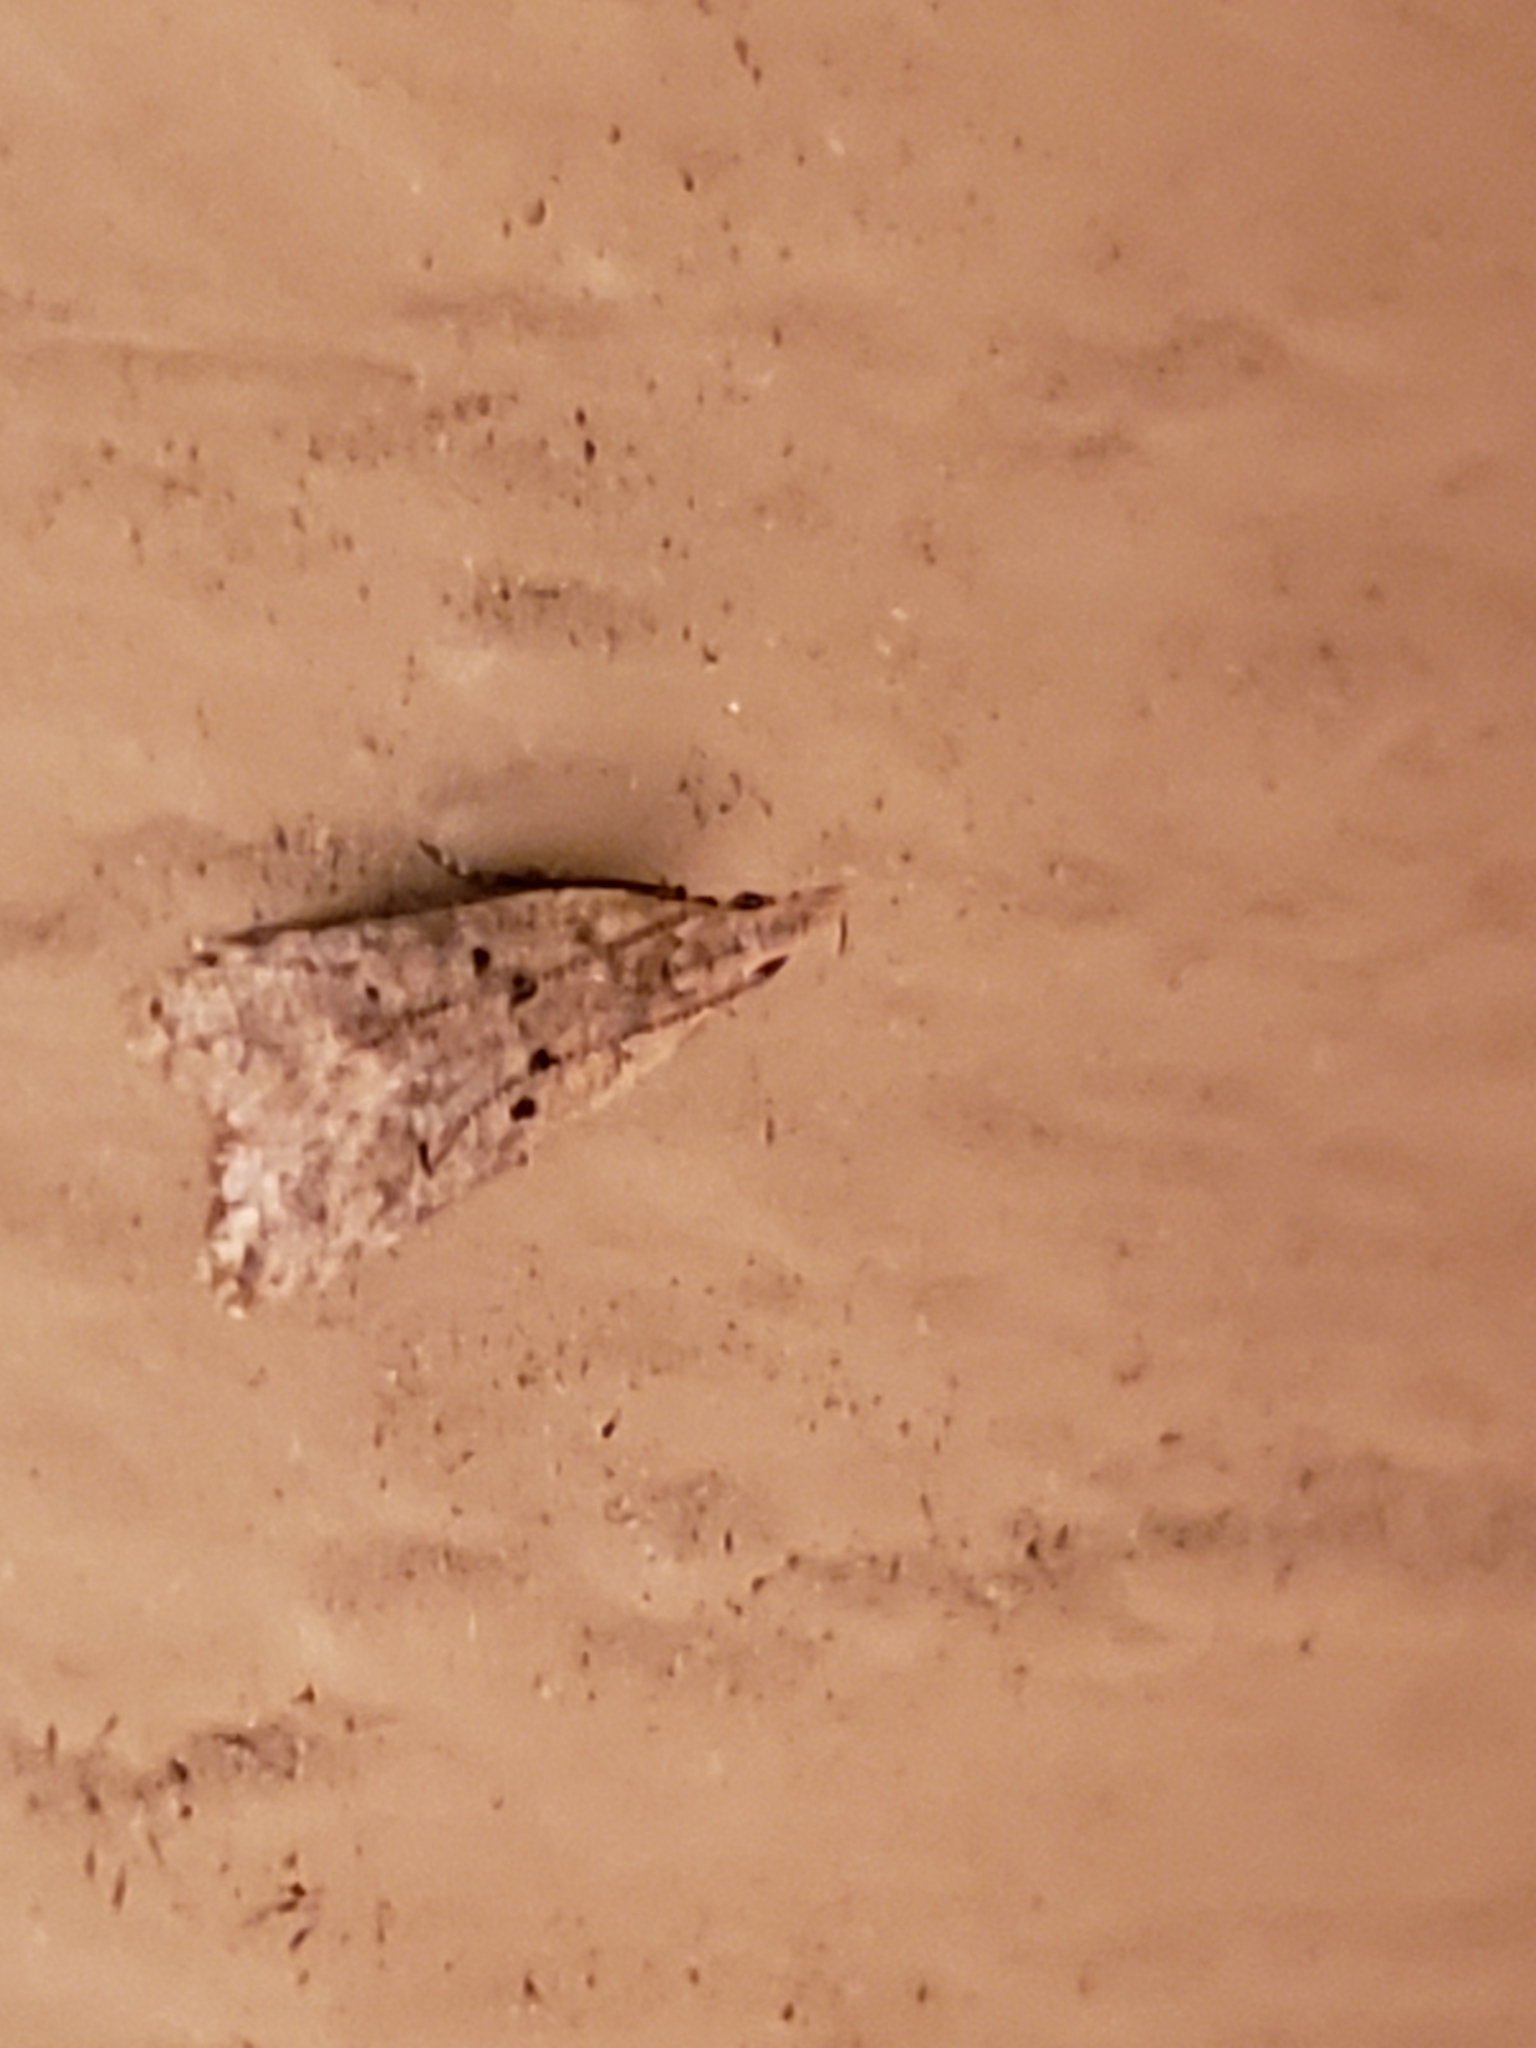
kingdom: Animalia
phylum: Arthropoda
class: Insecta
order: Lepidoptera
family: Gelechiidae
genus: Dichomeris
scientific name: Dichomeris punctipennella
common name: Many-spotted dichomeris moth
